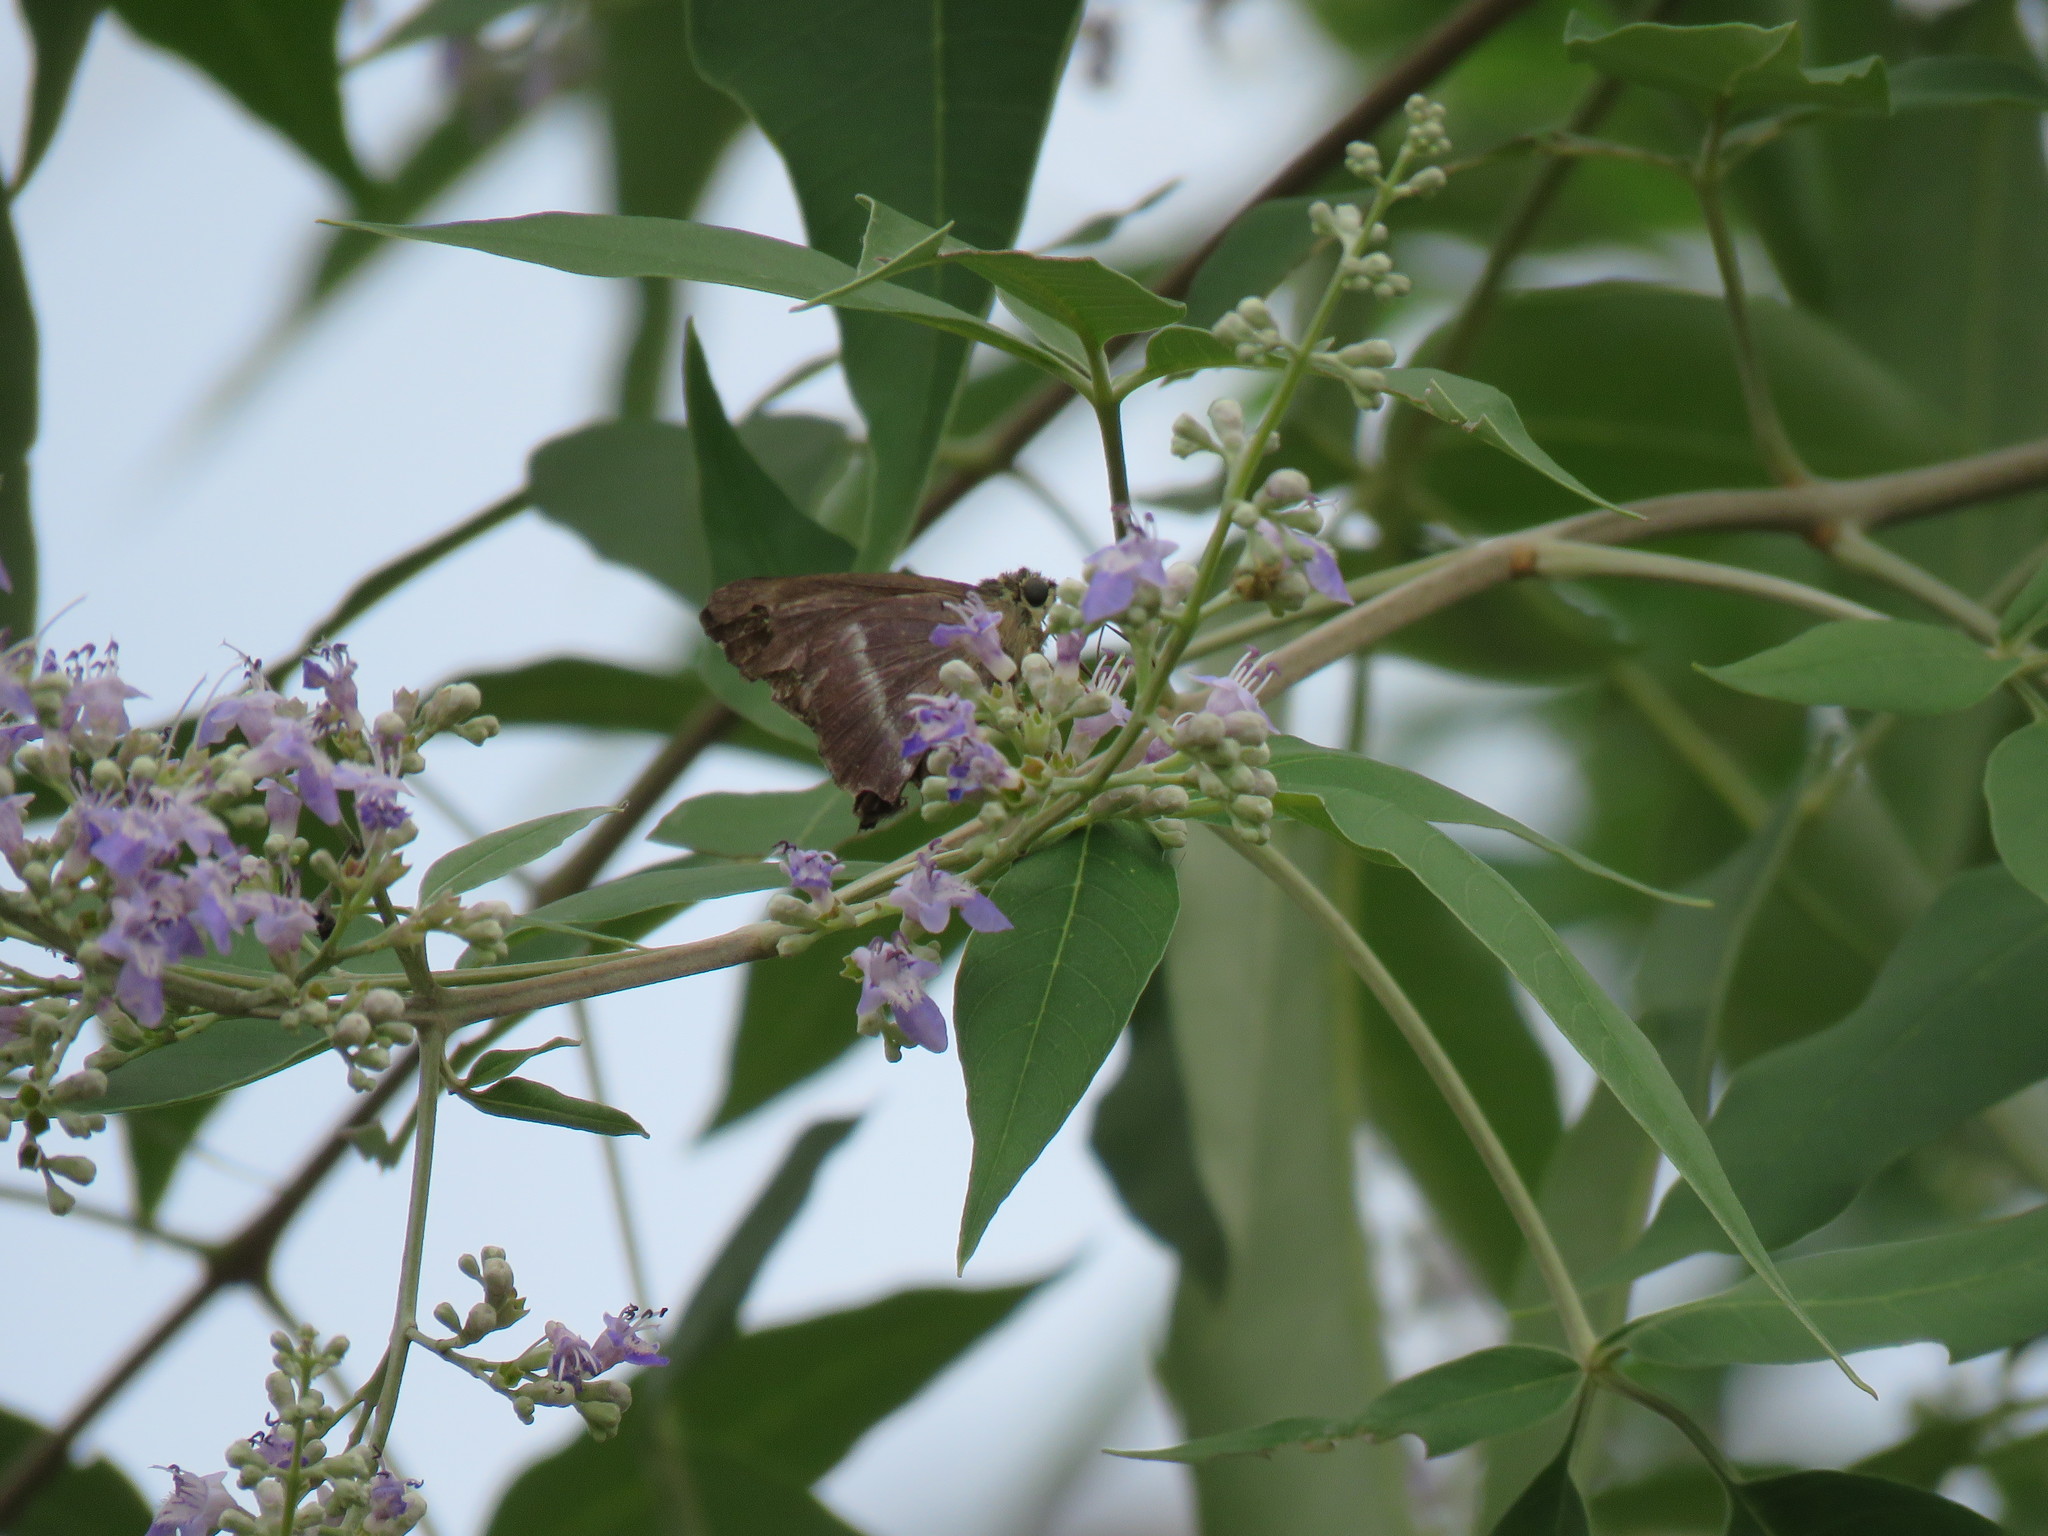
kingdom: Animalia
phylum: Arthropoda
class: Insecta
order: Lepidoptera
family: Hesperiidae
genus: Hasora
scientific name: Hasora chromus
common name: Common banded awl
